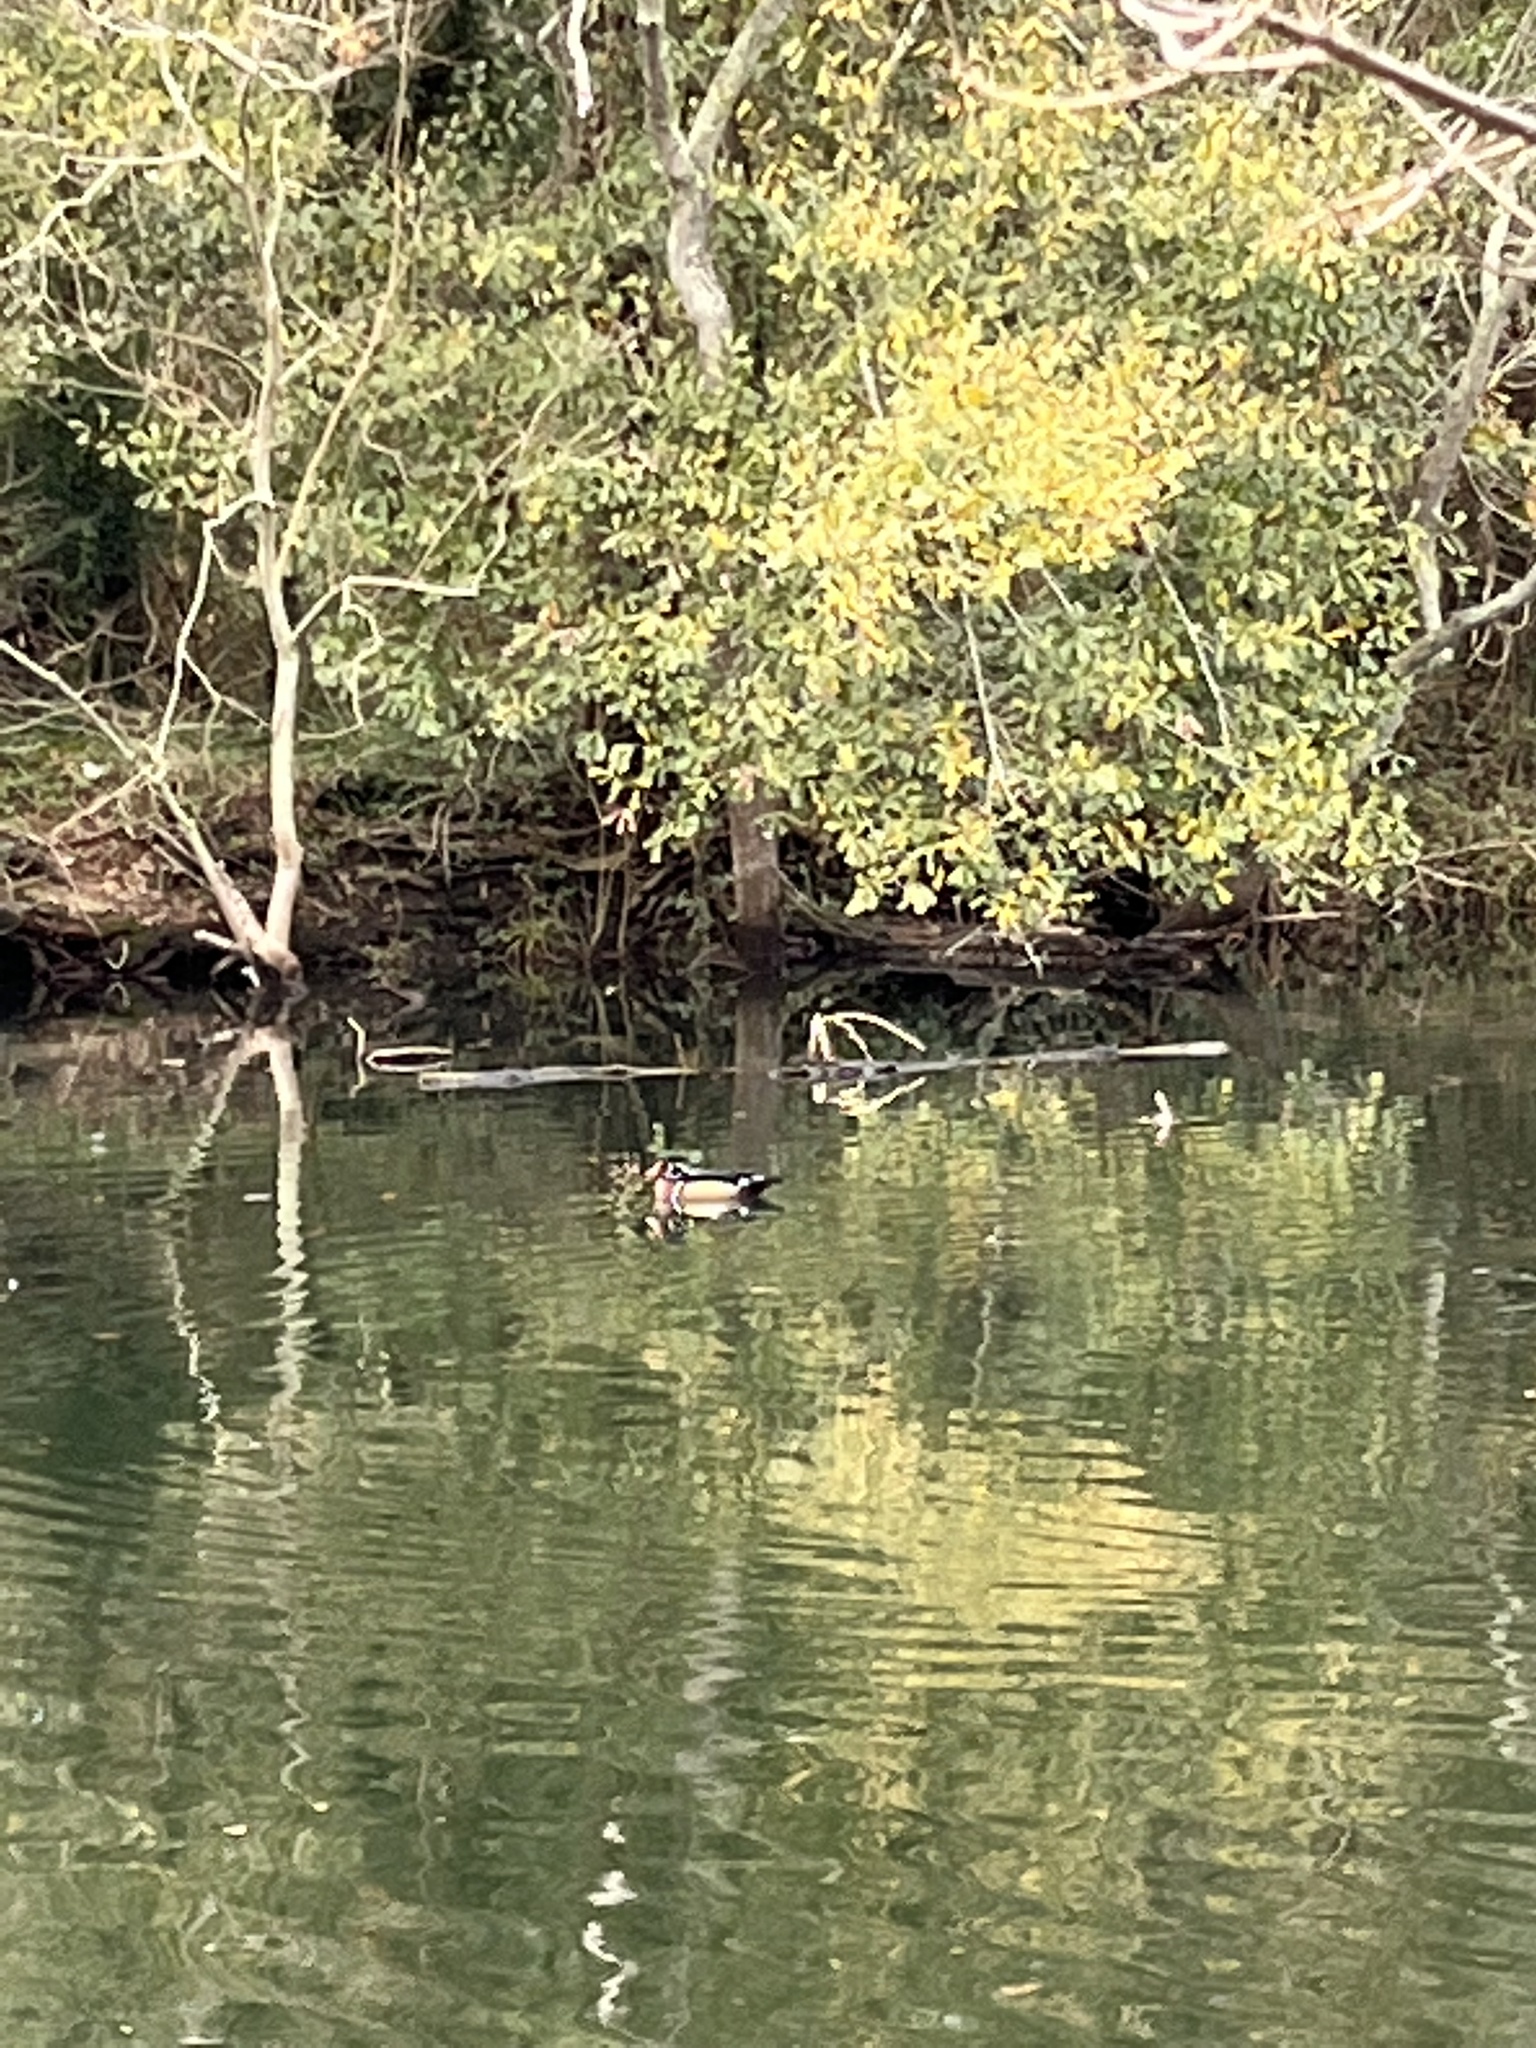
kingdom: Animalia
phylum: Chordata
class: Aves
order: Anseriformes
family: Anatidae
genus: Aix
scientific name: Aix sponsa
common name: Wood duck
